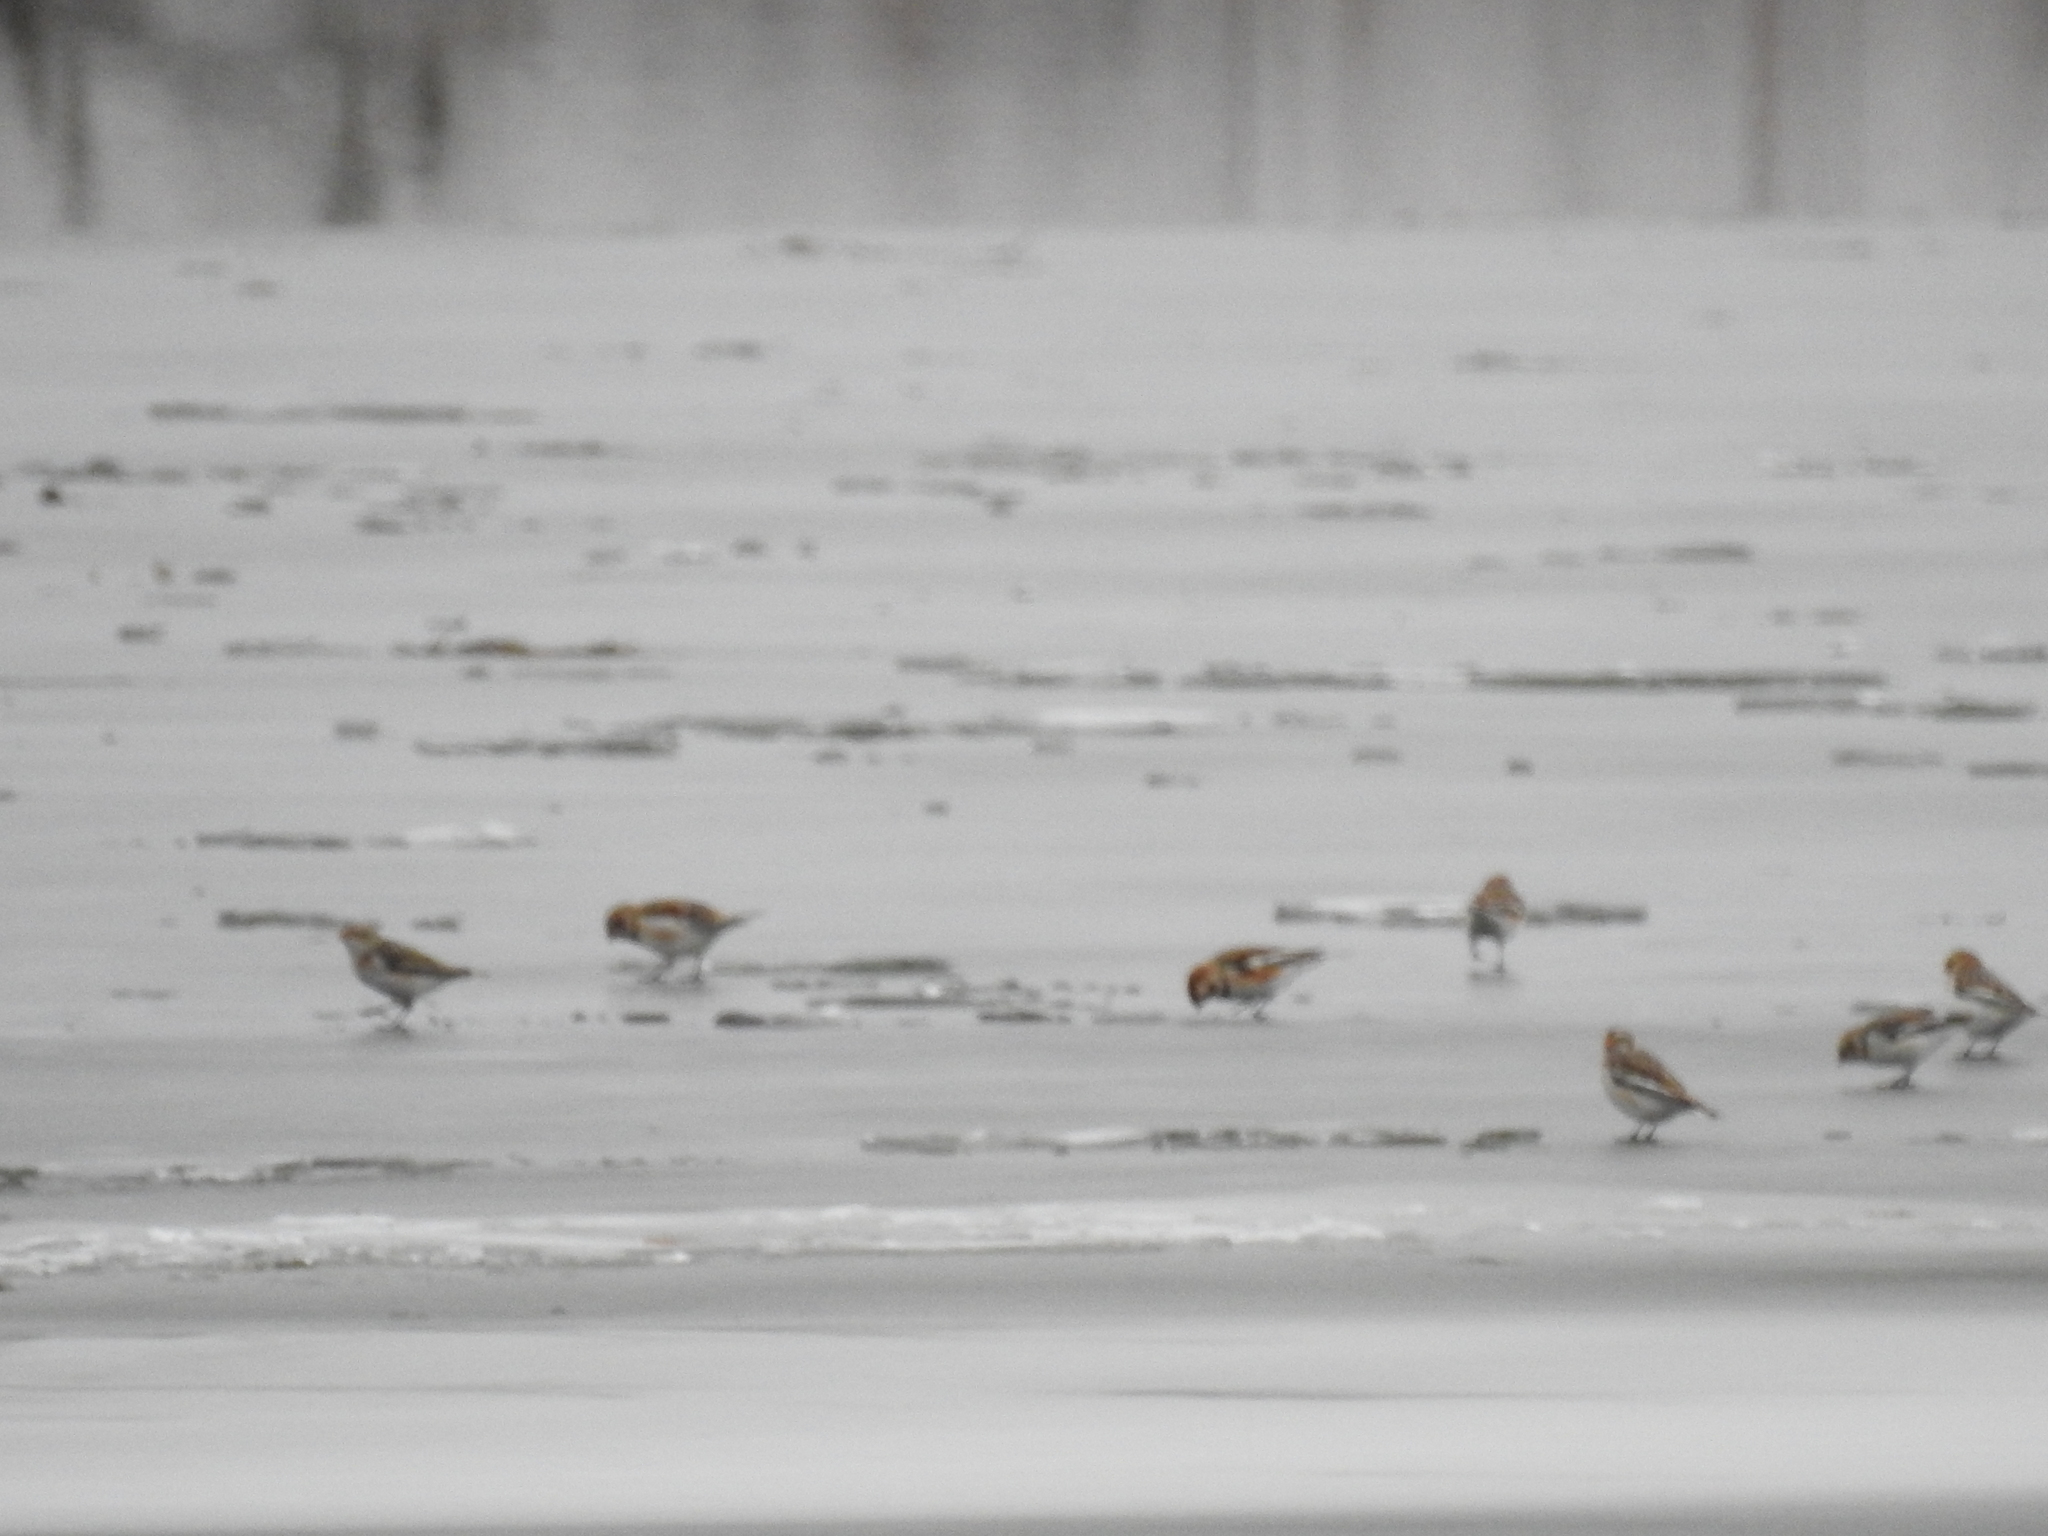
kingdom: Animalia
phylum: Chordata
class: Aves
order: Passeriformes
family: Calcariidae
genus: Plectrophenax
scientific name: Plectrophenax nivalis
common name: Snow bunting
